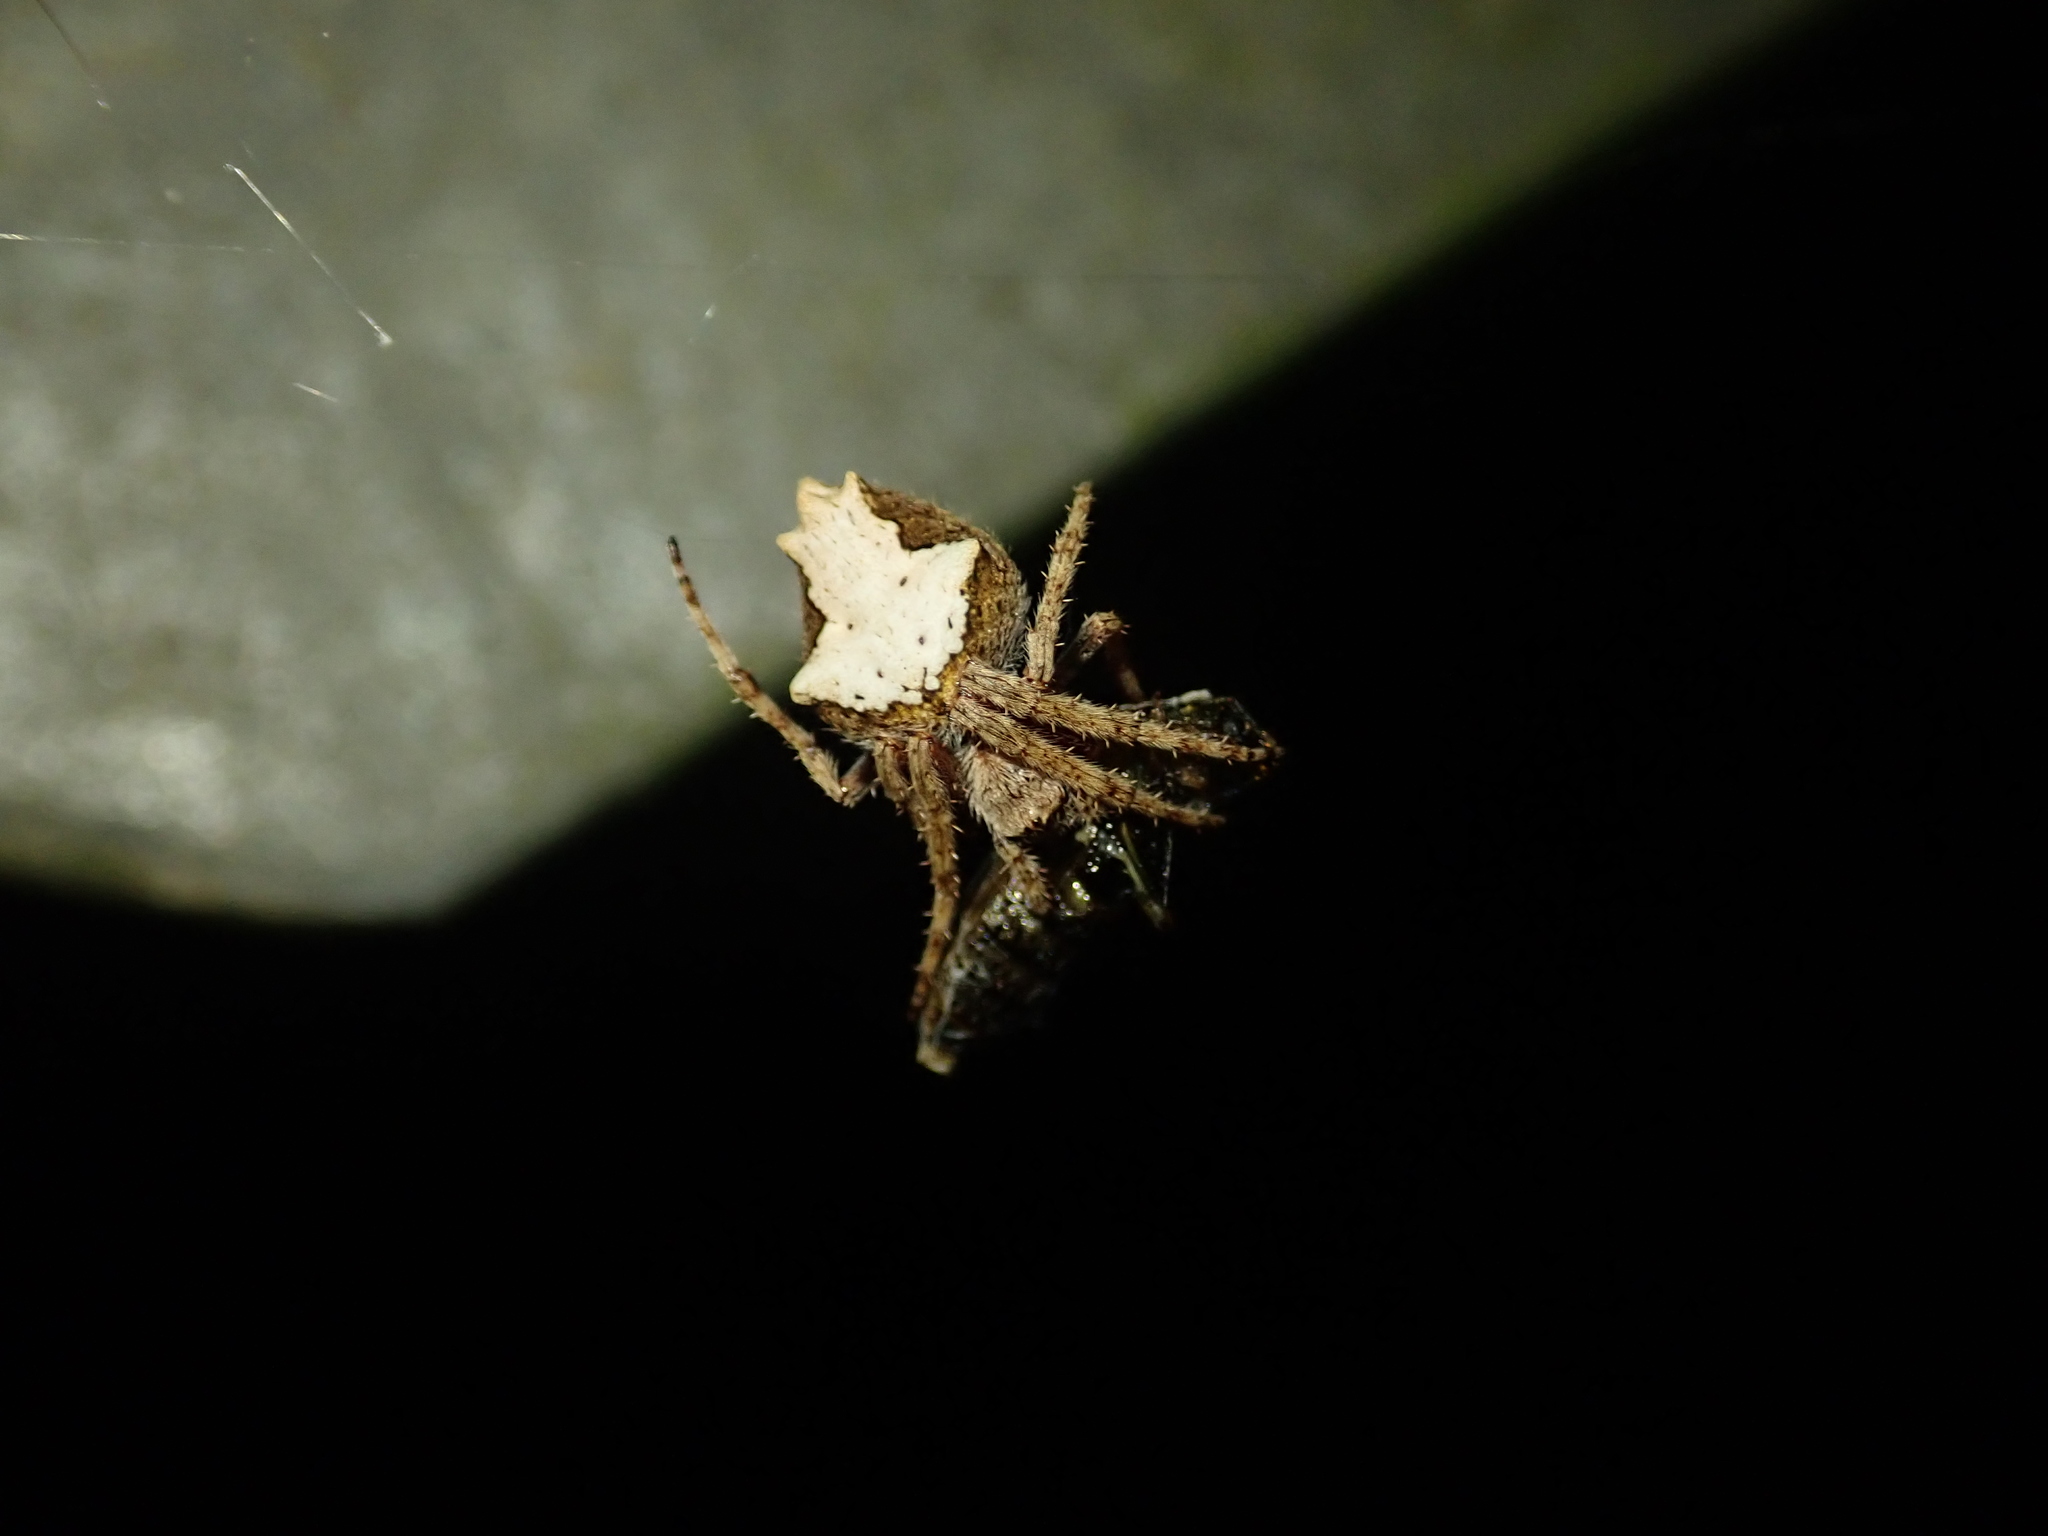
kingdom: Animalia
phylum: Arthropoda
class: Arachnida
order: Araneae
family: Araneidae
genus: Eriophora
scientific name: Eriophora pustulosa
